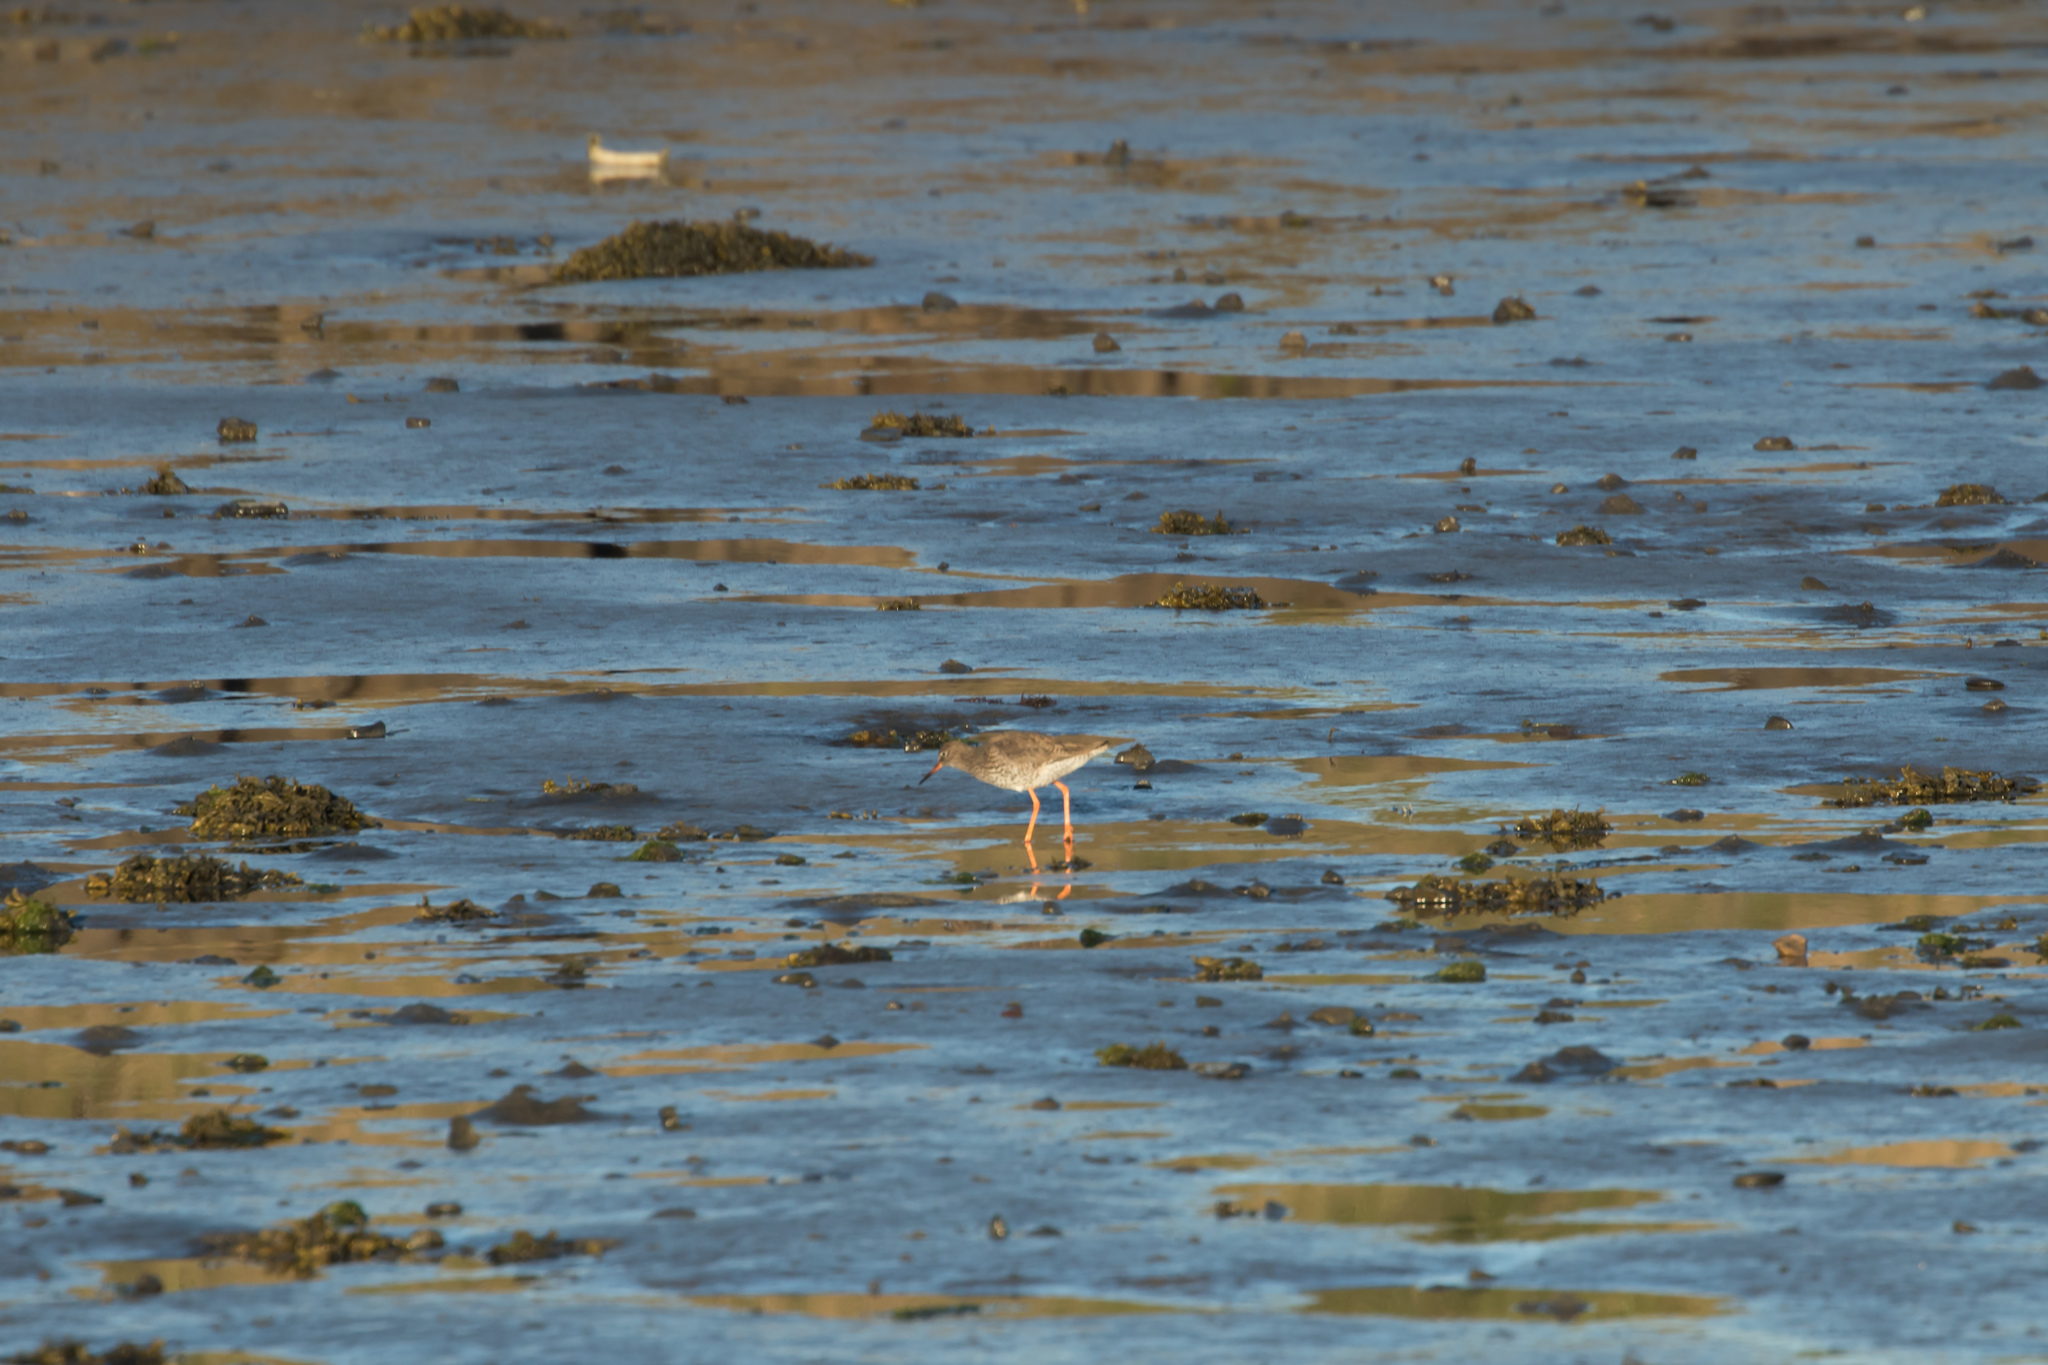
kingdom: Animalia
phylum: Chordata
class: Aves
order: Charadriiformes
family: Scolopacidae
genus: Tringa
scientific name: Tringa totanus
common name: Common redshank
